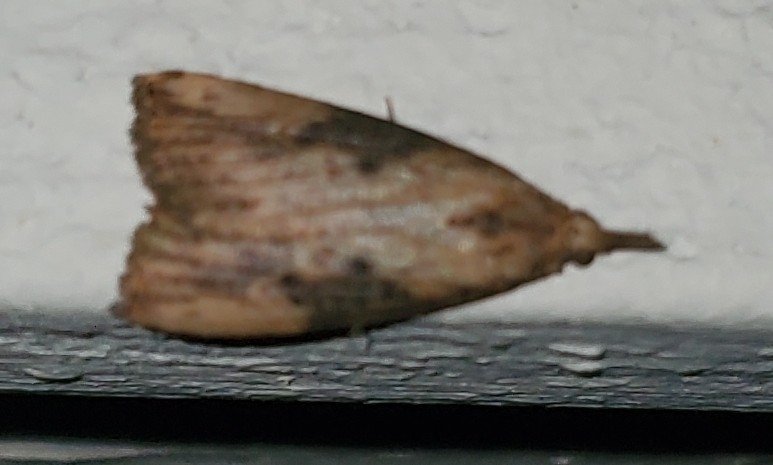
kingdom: Animalia
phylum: Arthropoda
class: Insecta
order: Lepidoptera
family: Erebidae
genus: Hypena
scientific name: Hypena humuli
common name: Hop vine snout
